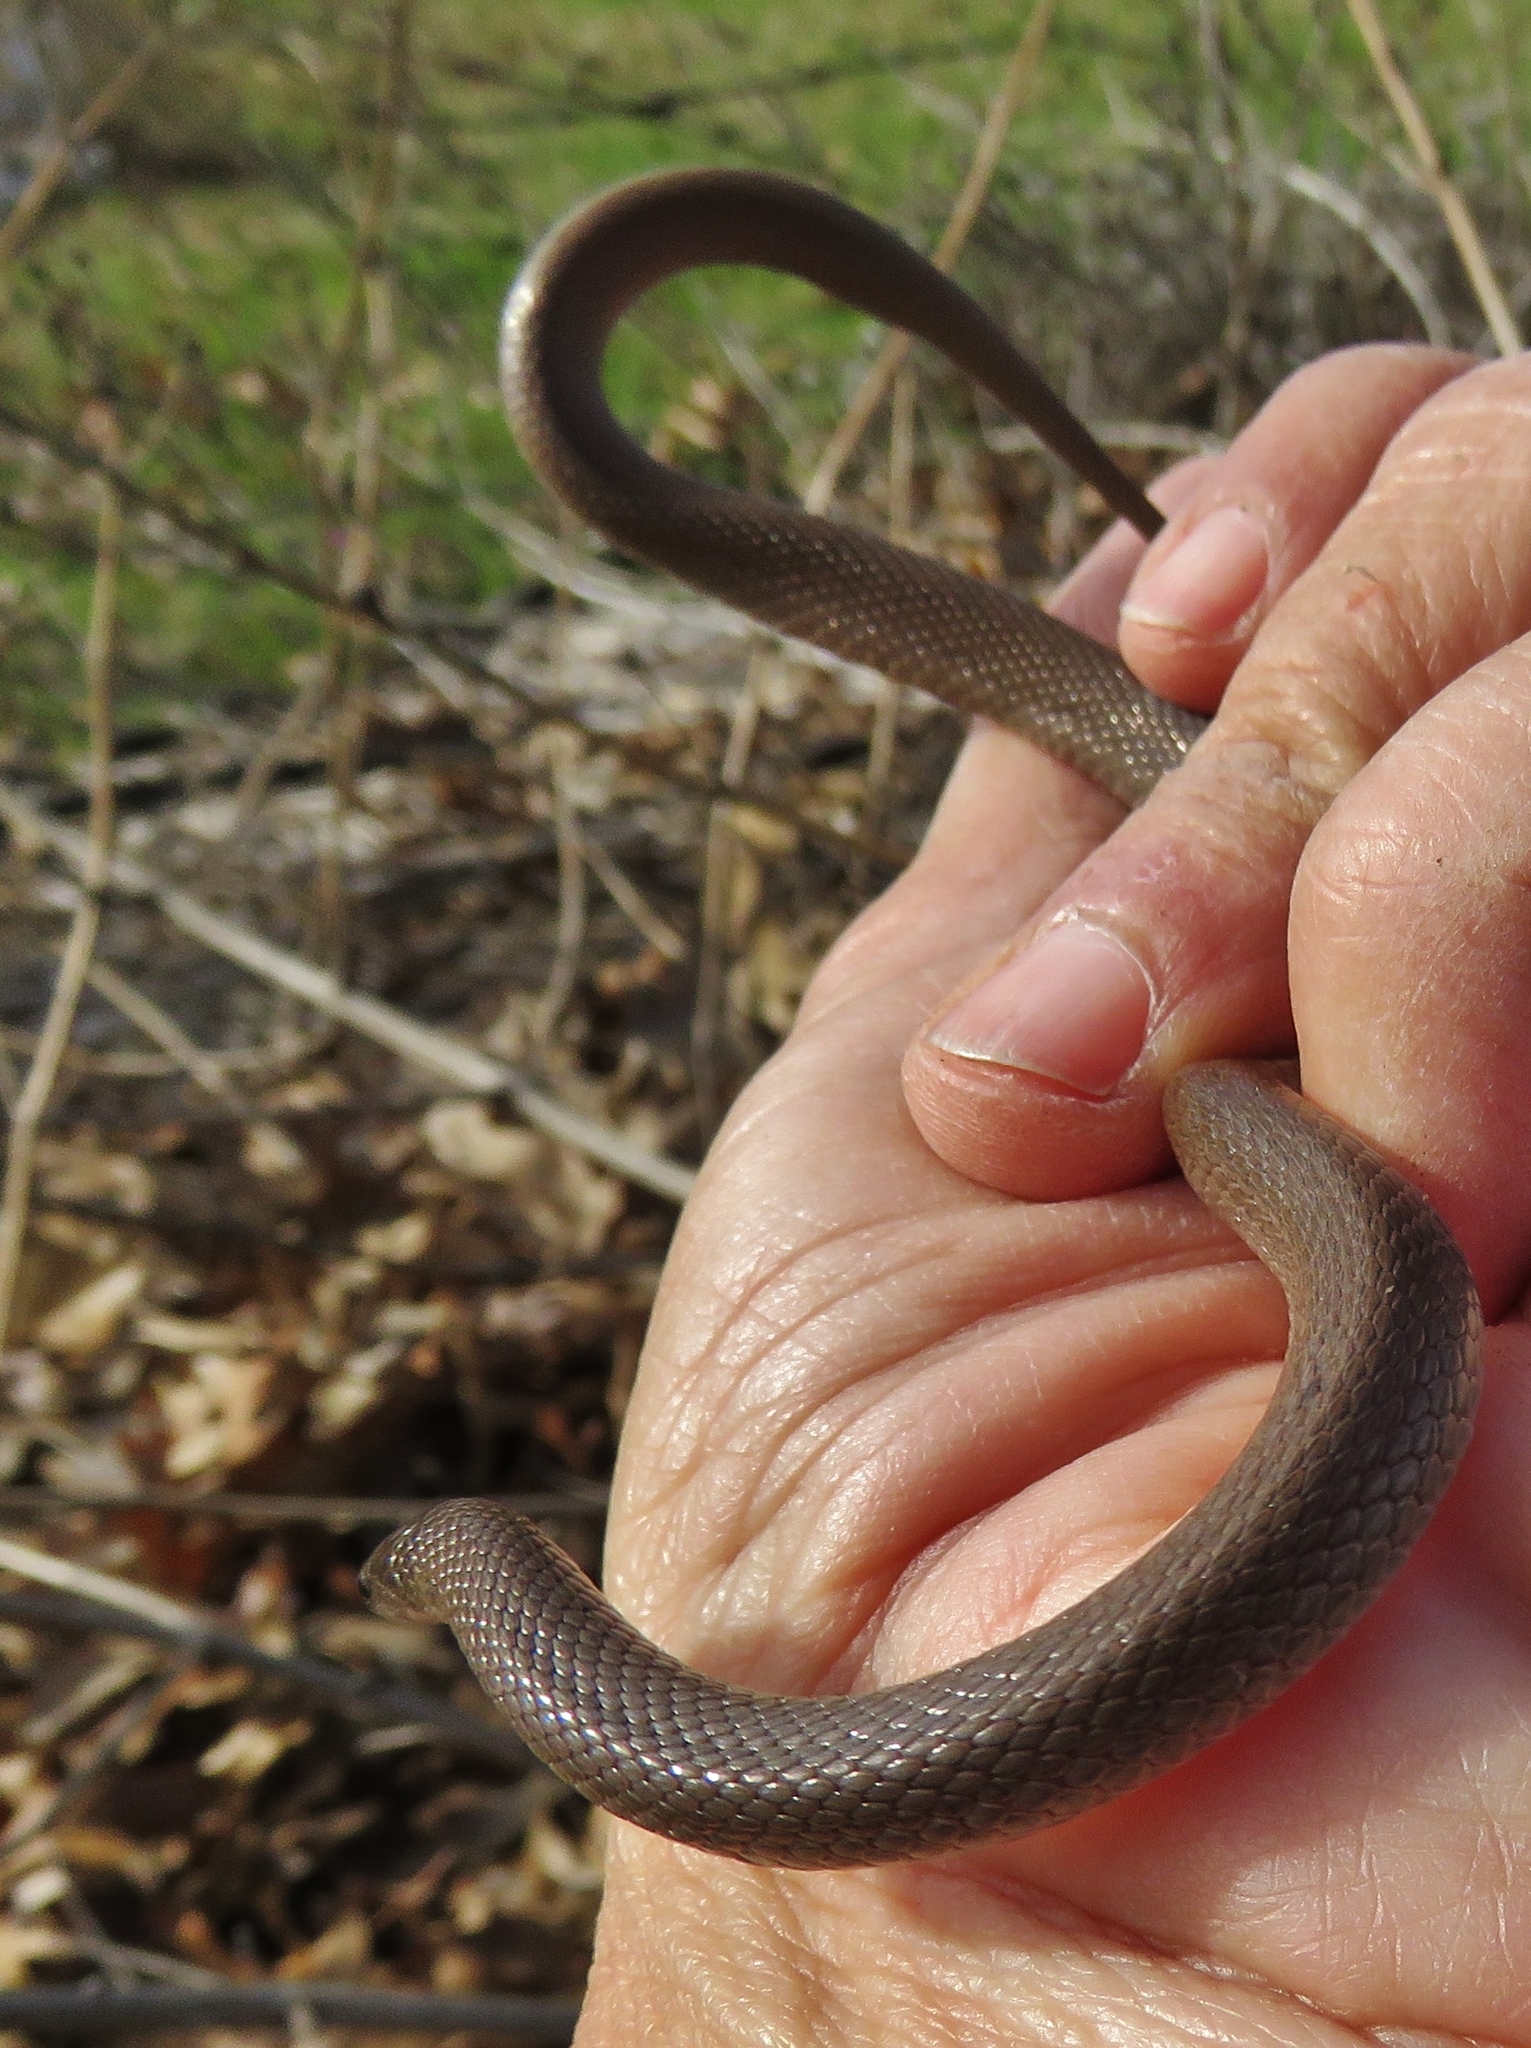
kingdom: Animalia
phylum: Chordata
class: Squamata
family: Colubridae
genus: Haldea
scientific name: Haldea striatula
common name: Rough earth snake
